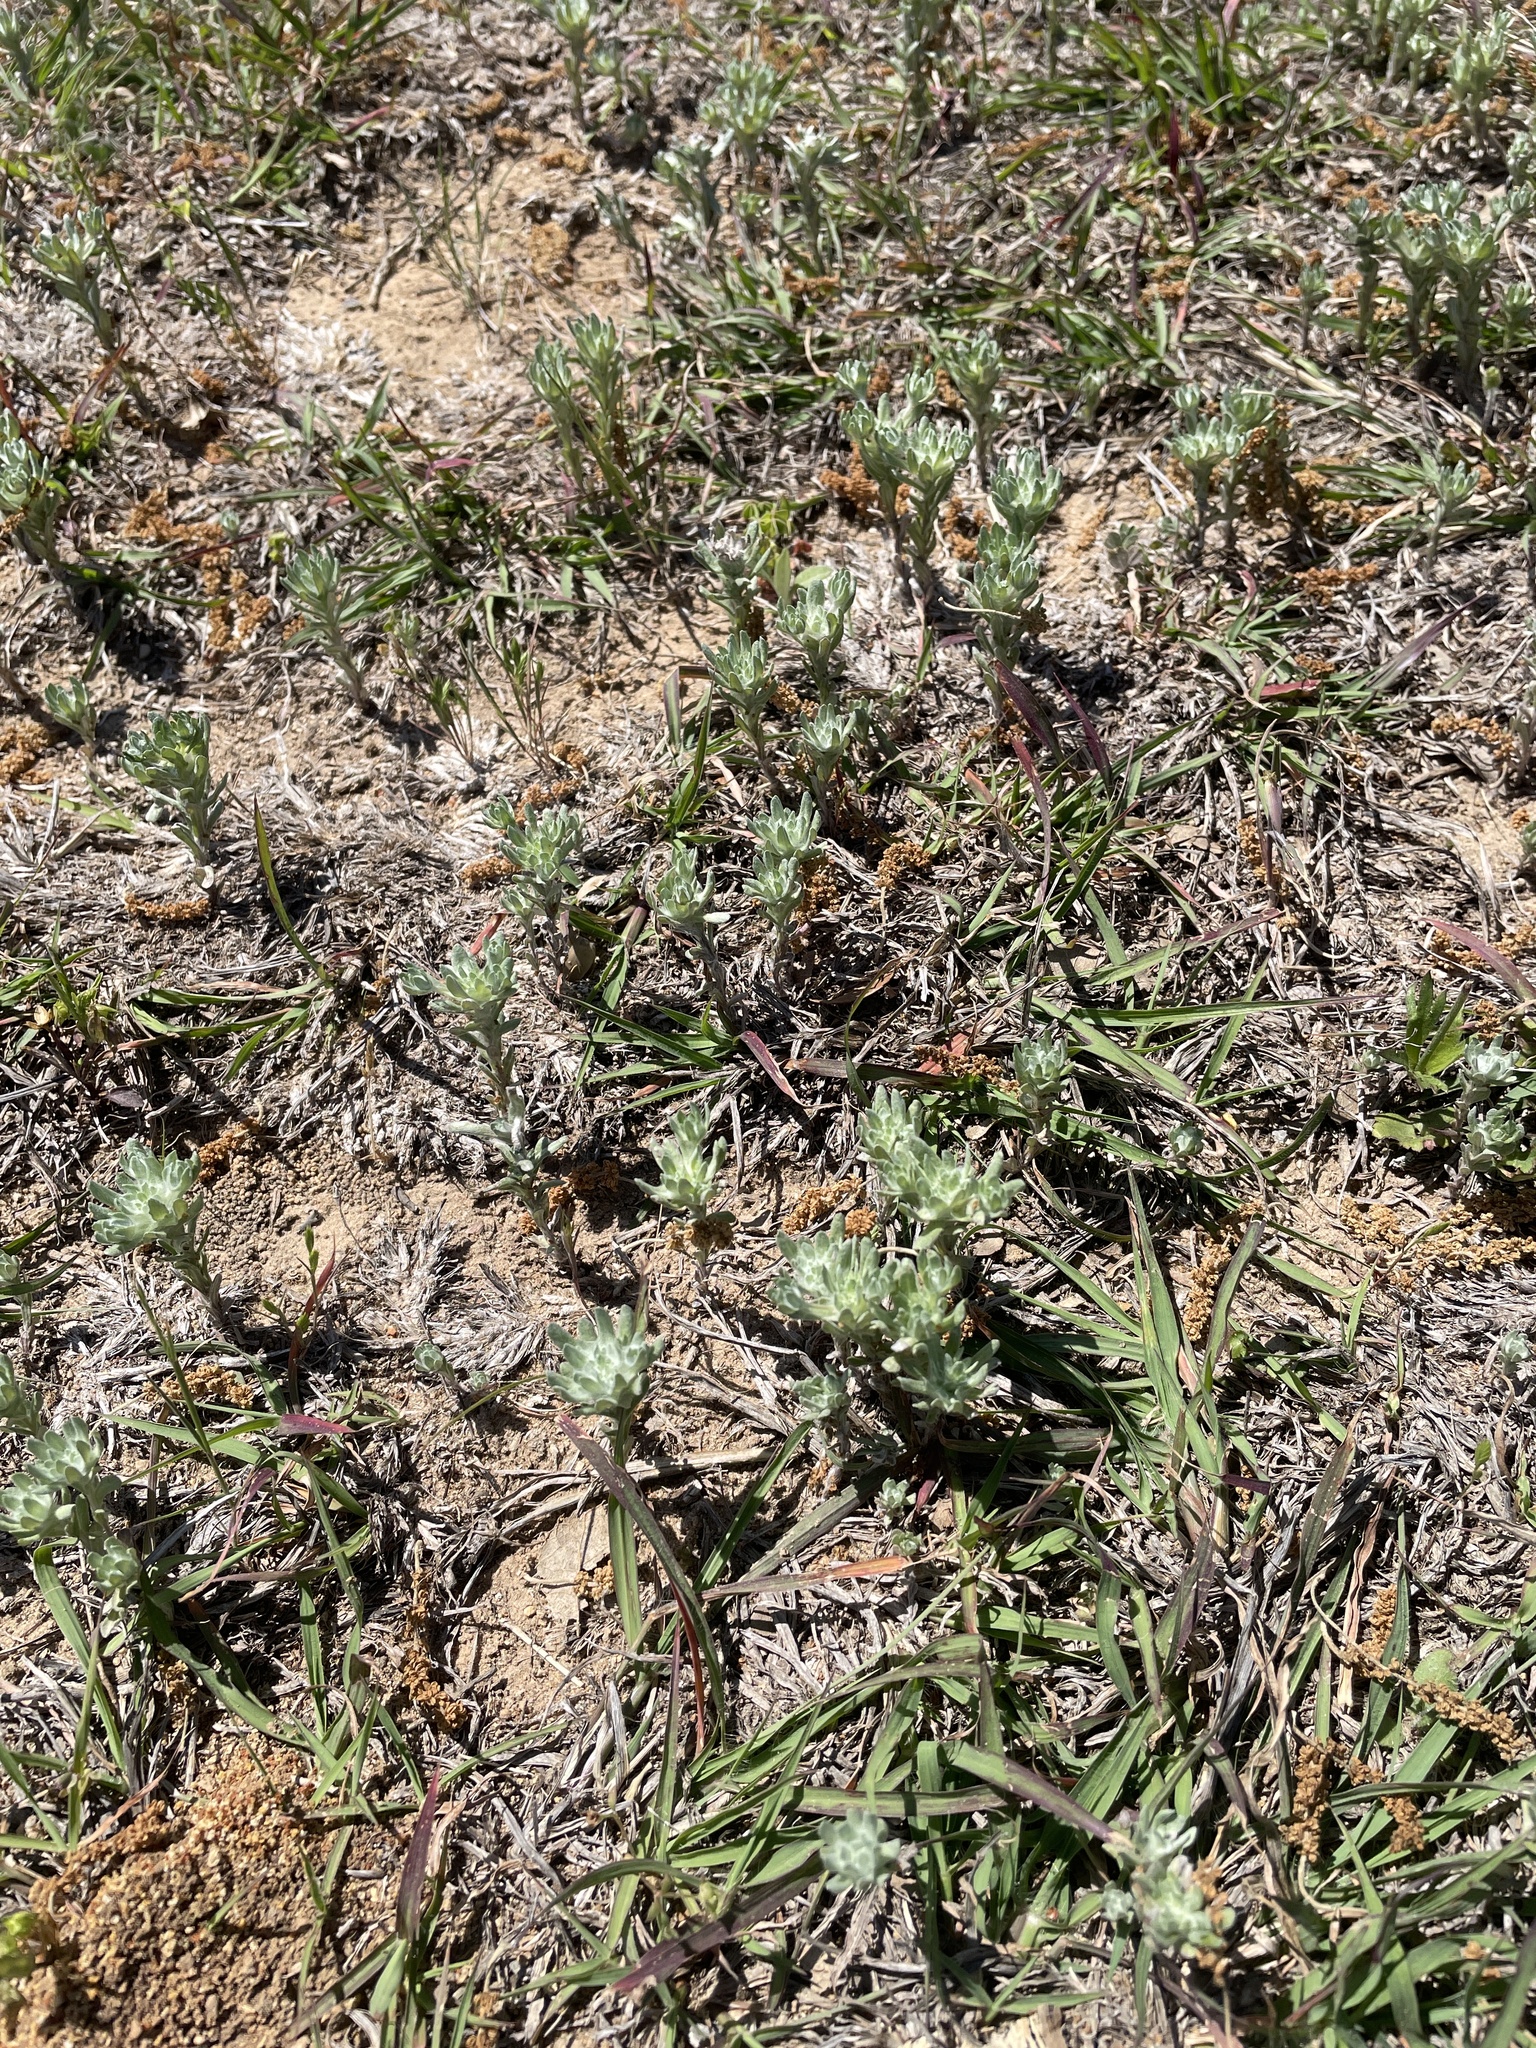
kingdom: Plantae
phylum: Tracheophyta
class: Magnoliopsida
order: Asterales
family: Asteraceae
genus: Diaperia
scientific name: Diaperia prolifera
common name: Big-head rabbit-tobacco
